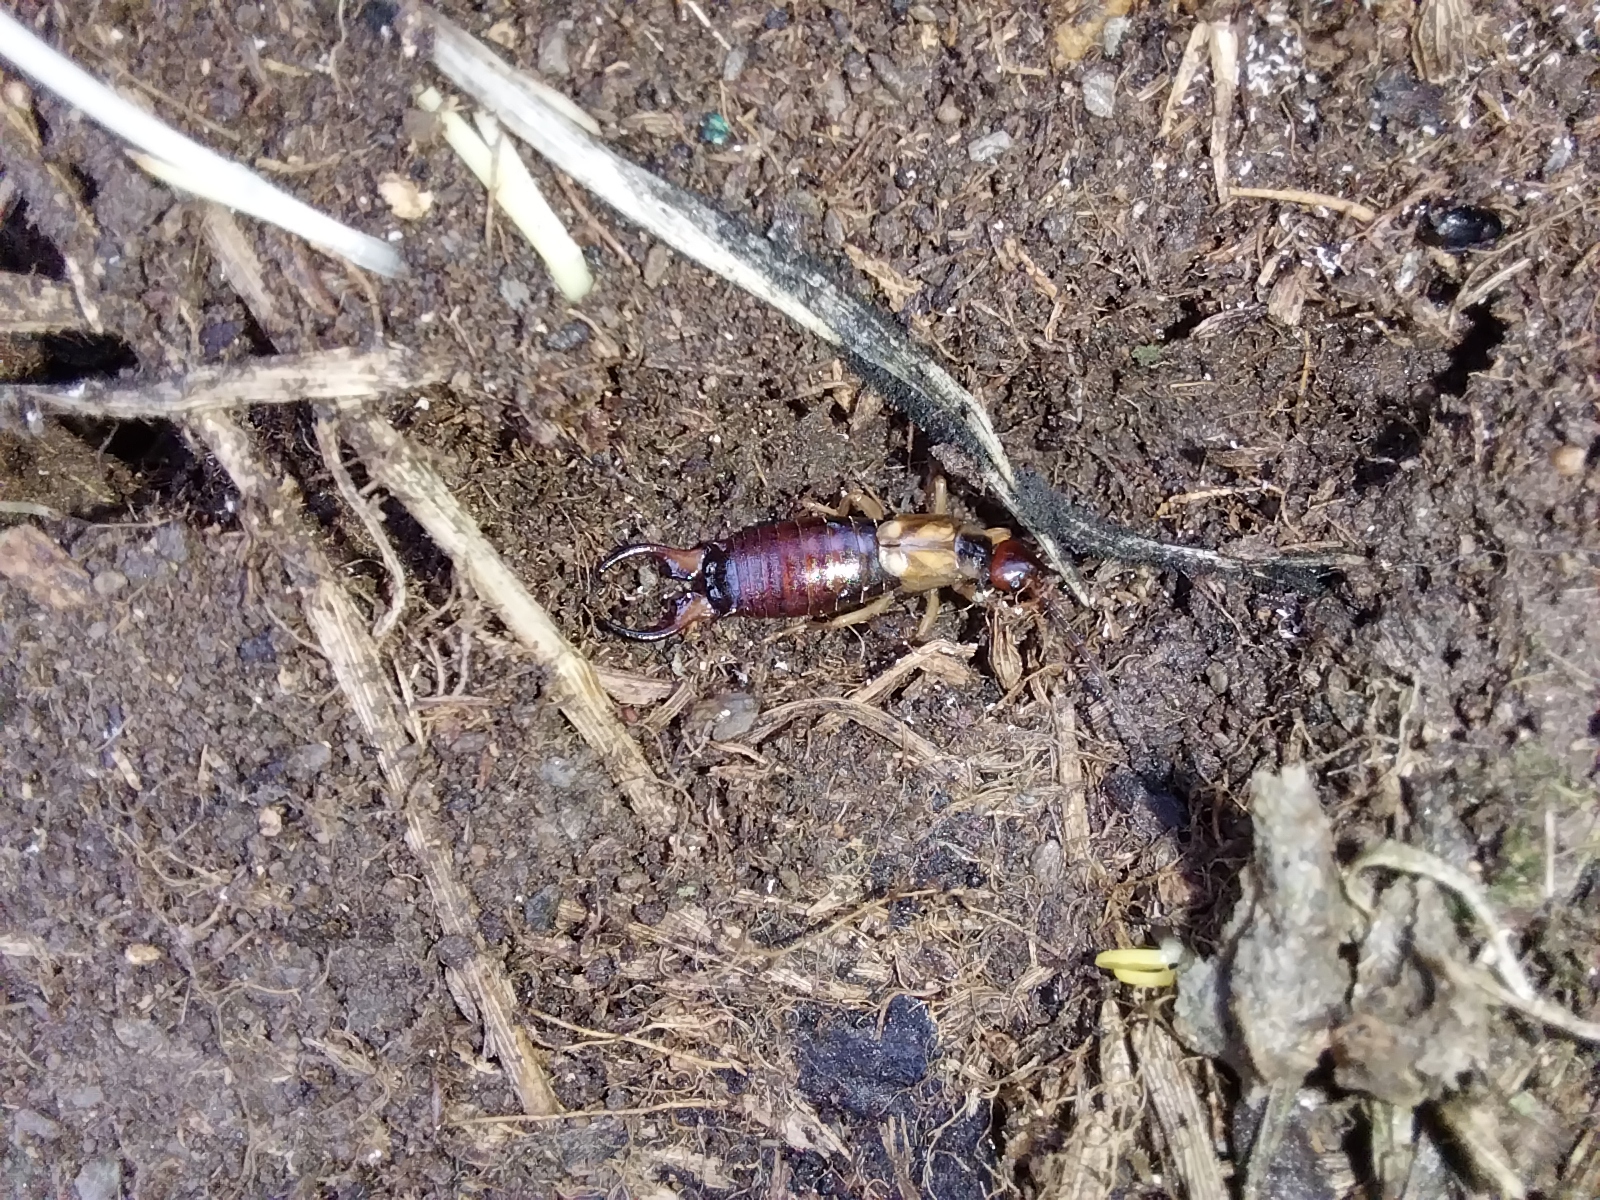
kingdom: Animalia
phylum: Arthropoda
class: Insecta
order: Dermaptera
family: Forficulidae
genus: Forficula
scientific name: Forficula
